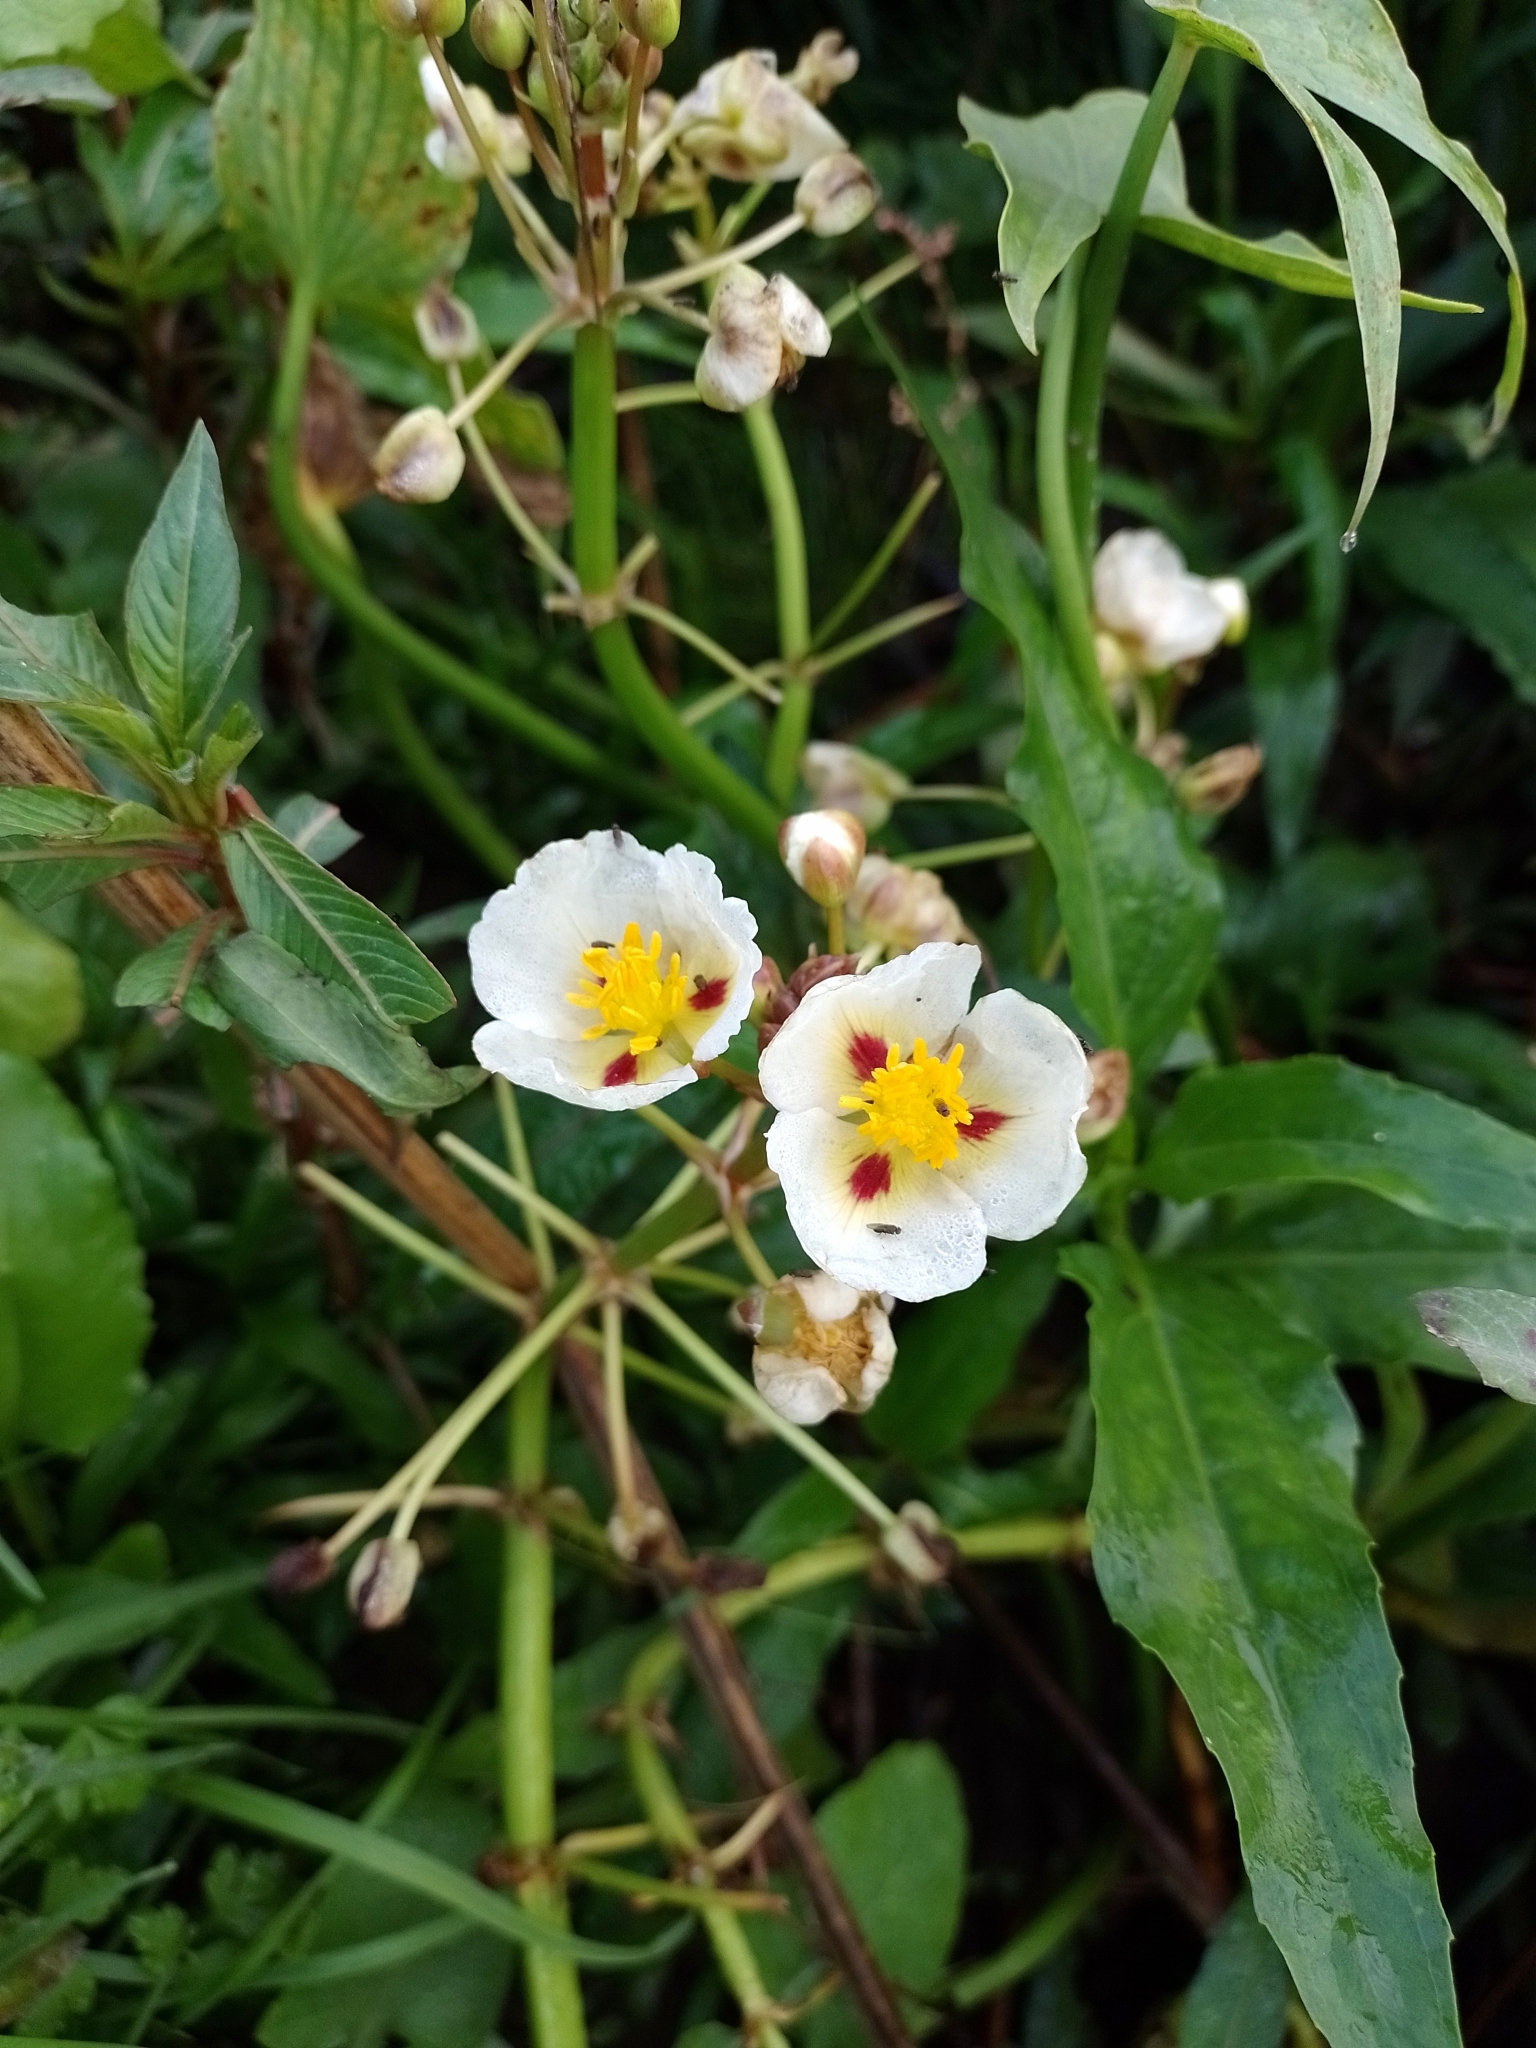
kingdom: Plantae
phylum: Tracheophyta
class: Liliopsida
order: Alismatales
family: Alismataceae
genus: Sagittaria
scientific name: Sagittaria montevidensis
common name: Giant arrowhead
